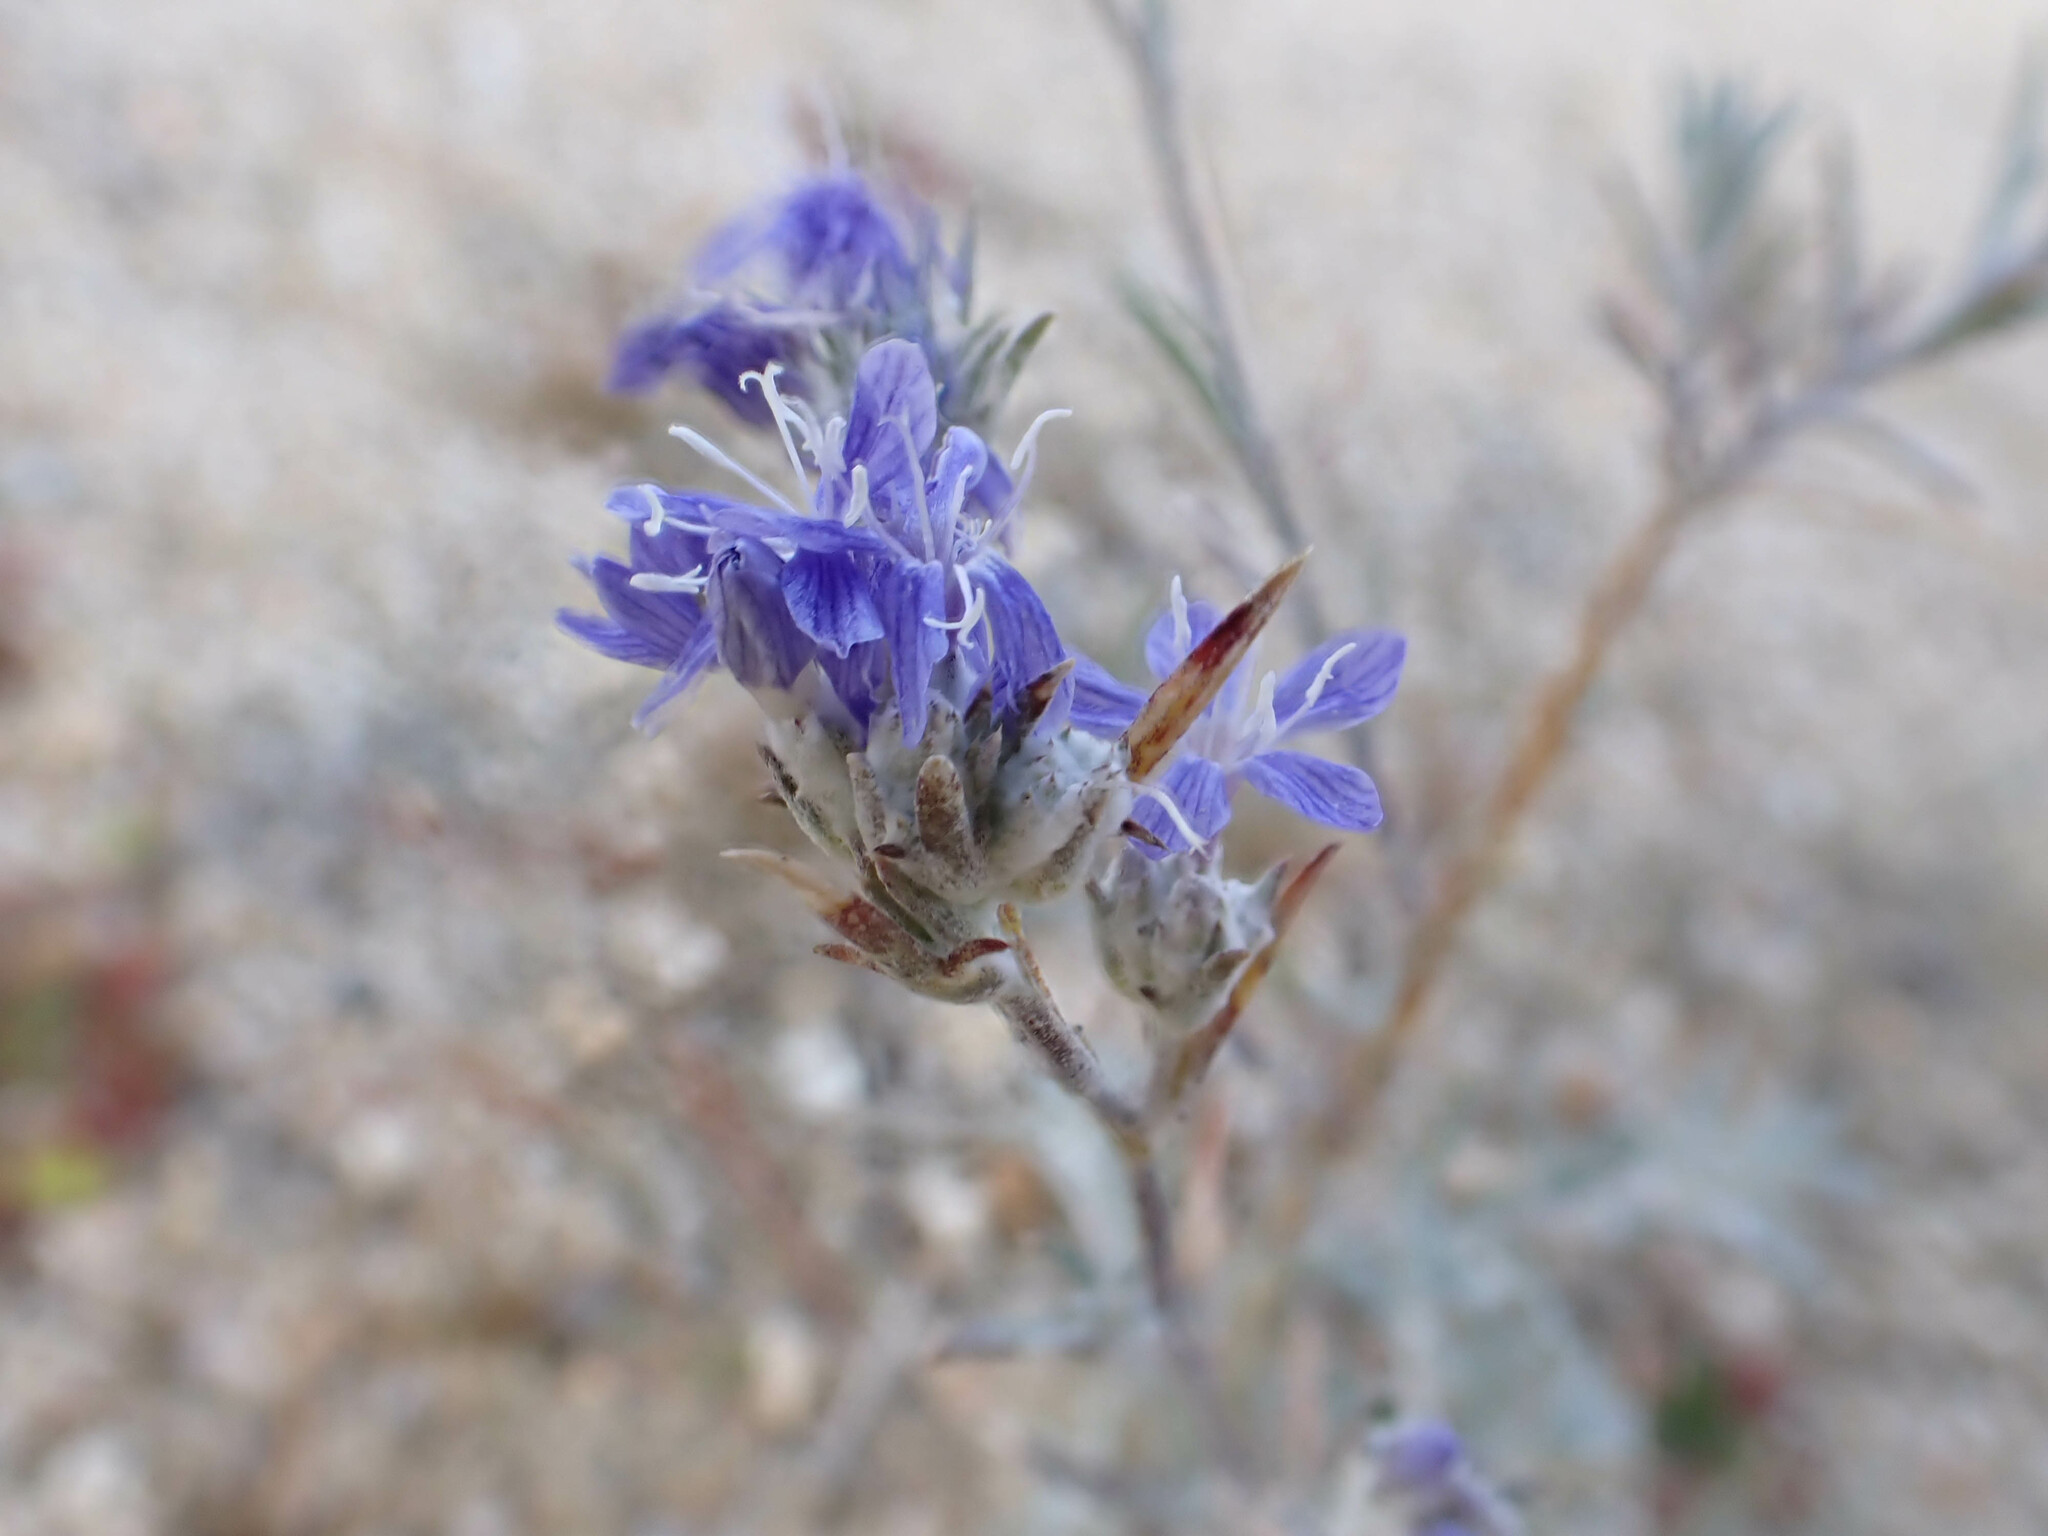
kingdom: Plantae
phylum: Tracheophyta
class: Magnoliopsida
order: Ericales
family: Polemoniaceae
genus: Eriastrum
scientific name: Eriastrum densifolium
